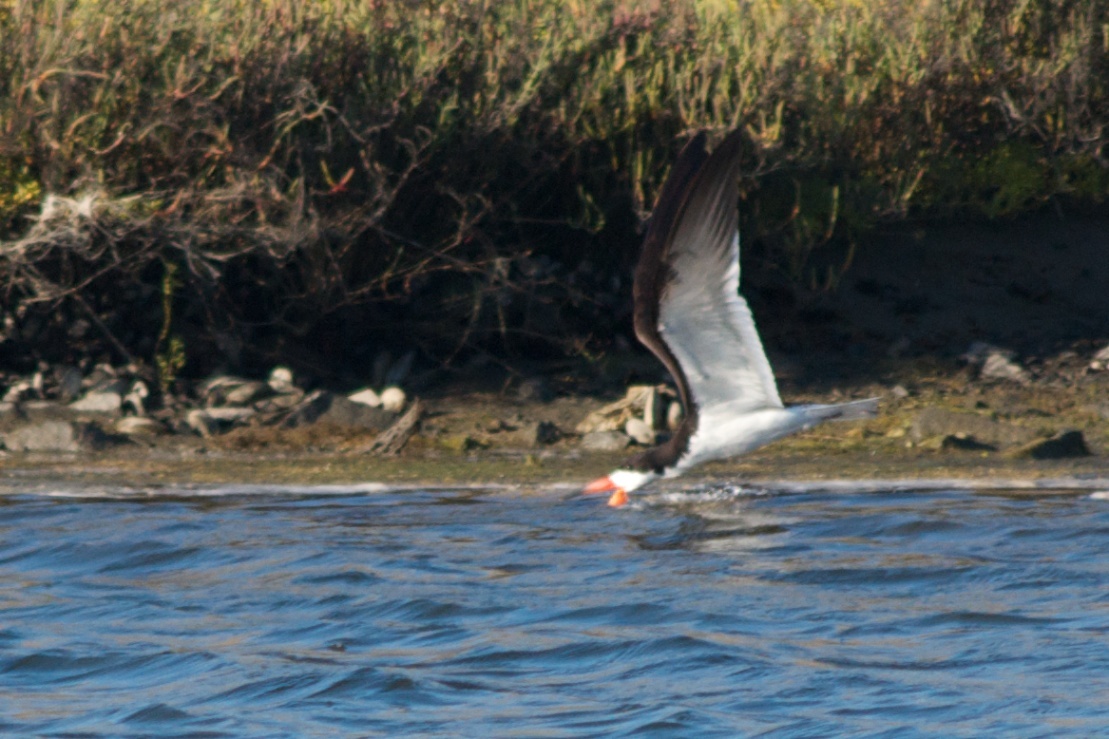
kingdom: Animalia
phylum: Chordata
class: Aves
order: Charadriiformes
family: Laridae
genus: Rynchops
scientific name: Rynchops niger
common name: Black skimmer
